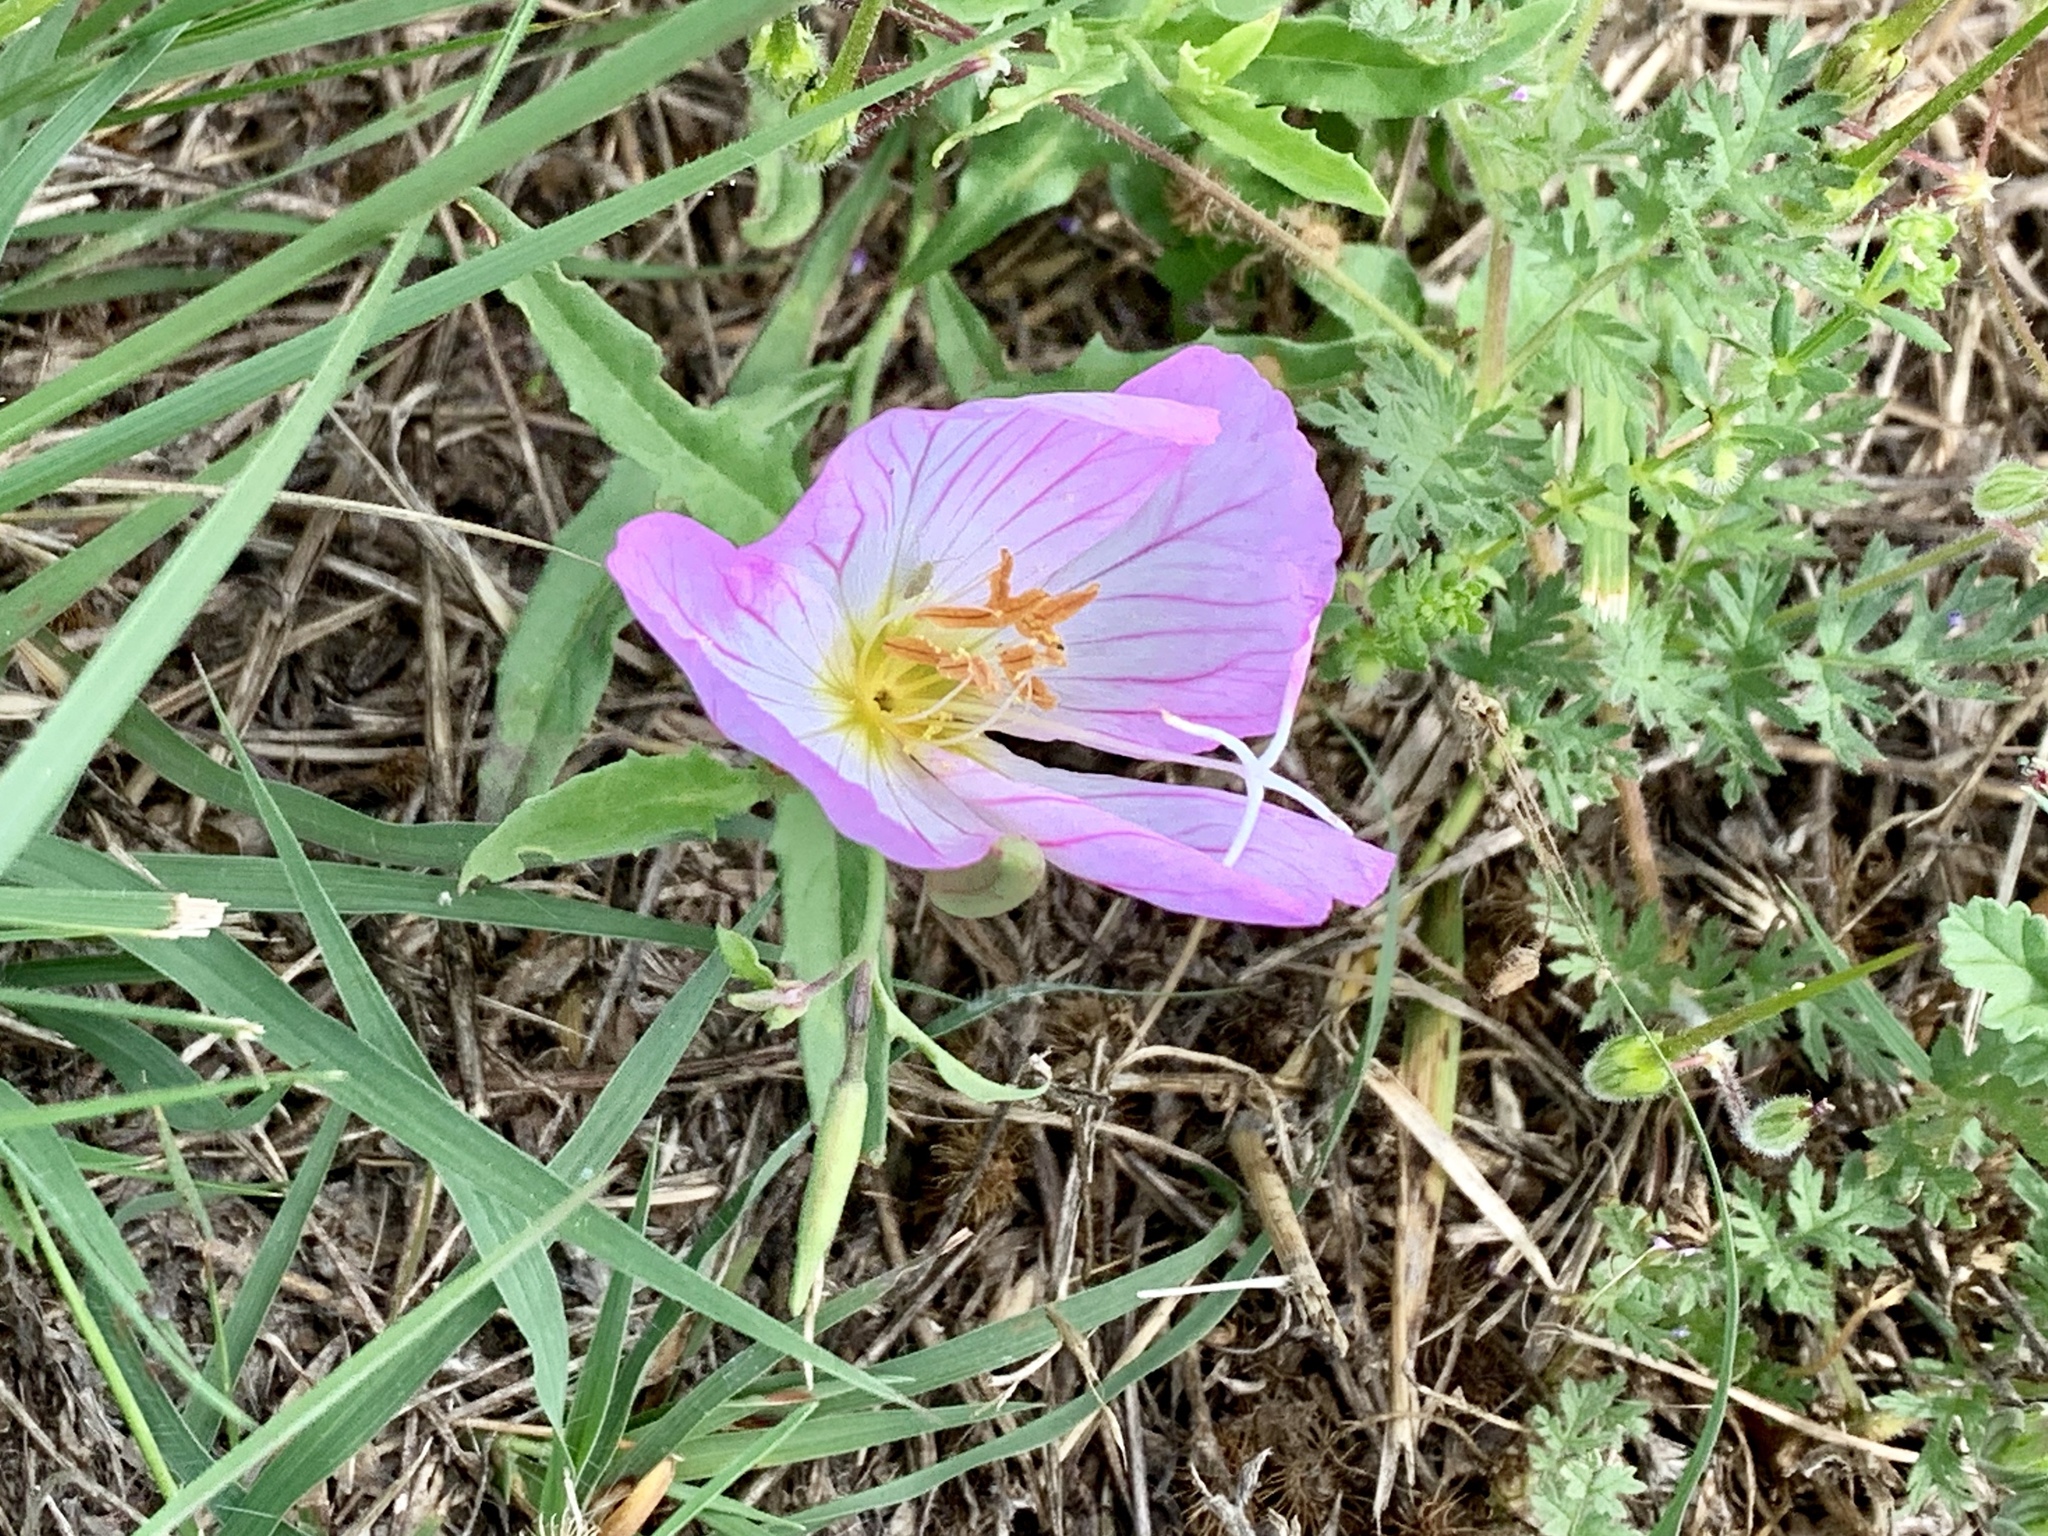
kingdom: Plantae
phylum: Tracheophyta
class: Magnoliopsida
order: Myrtales
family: Onagraceae
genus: Oenothera
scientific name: Oenothera speciosa
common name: White evening-primrose
